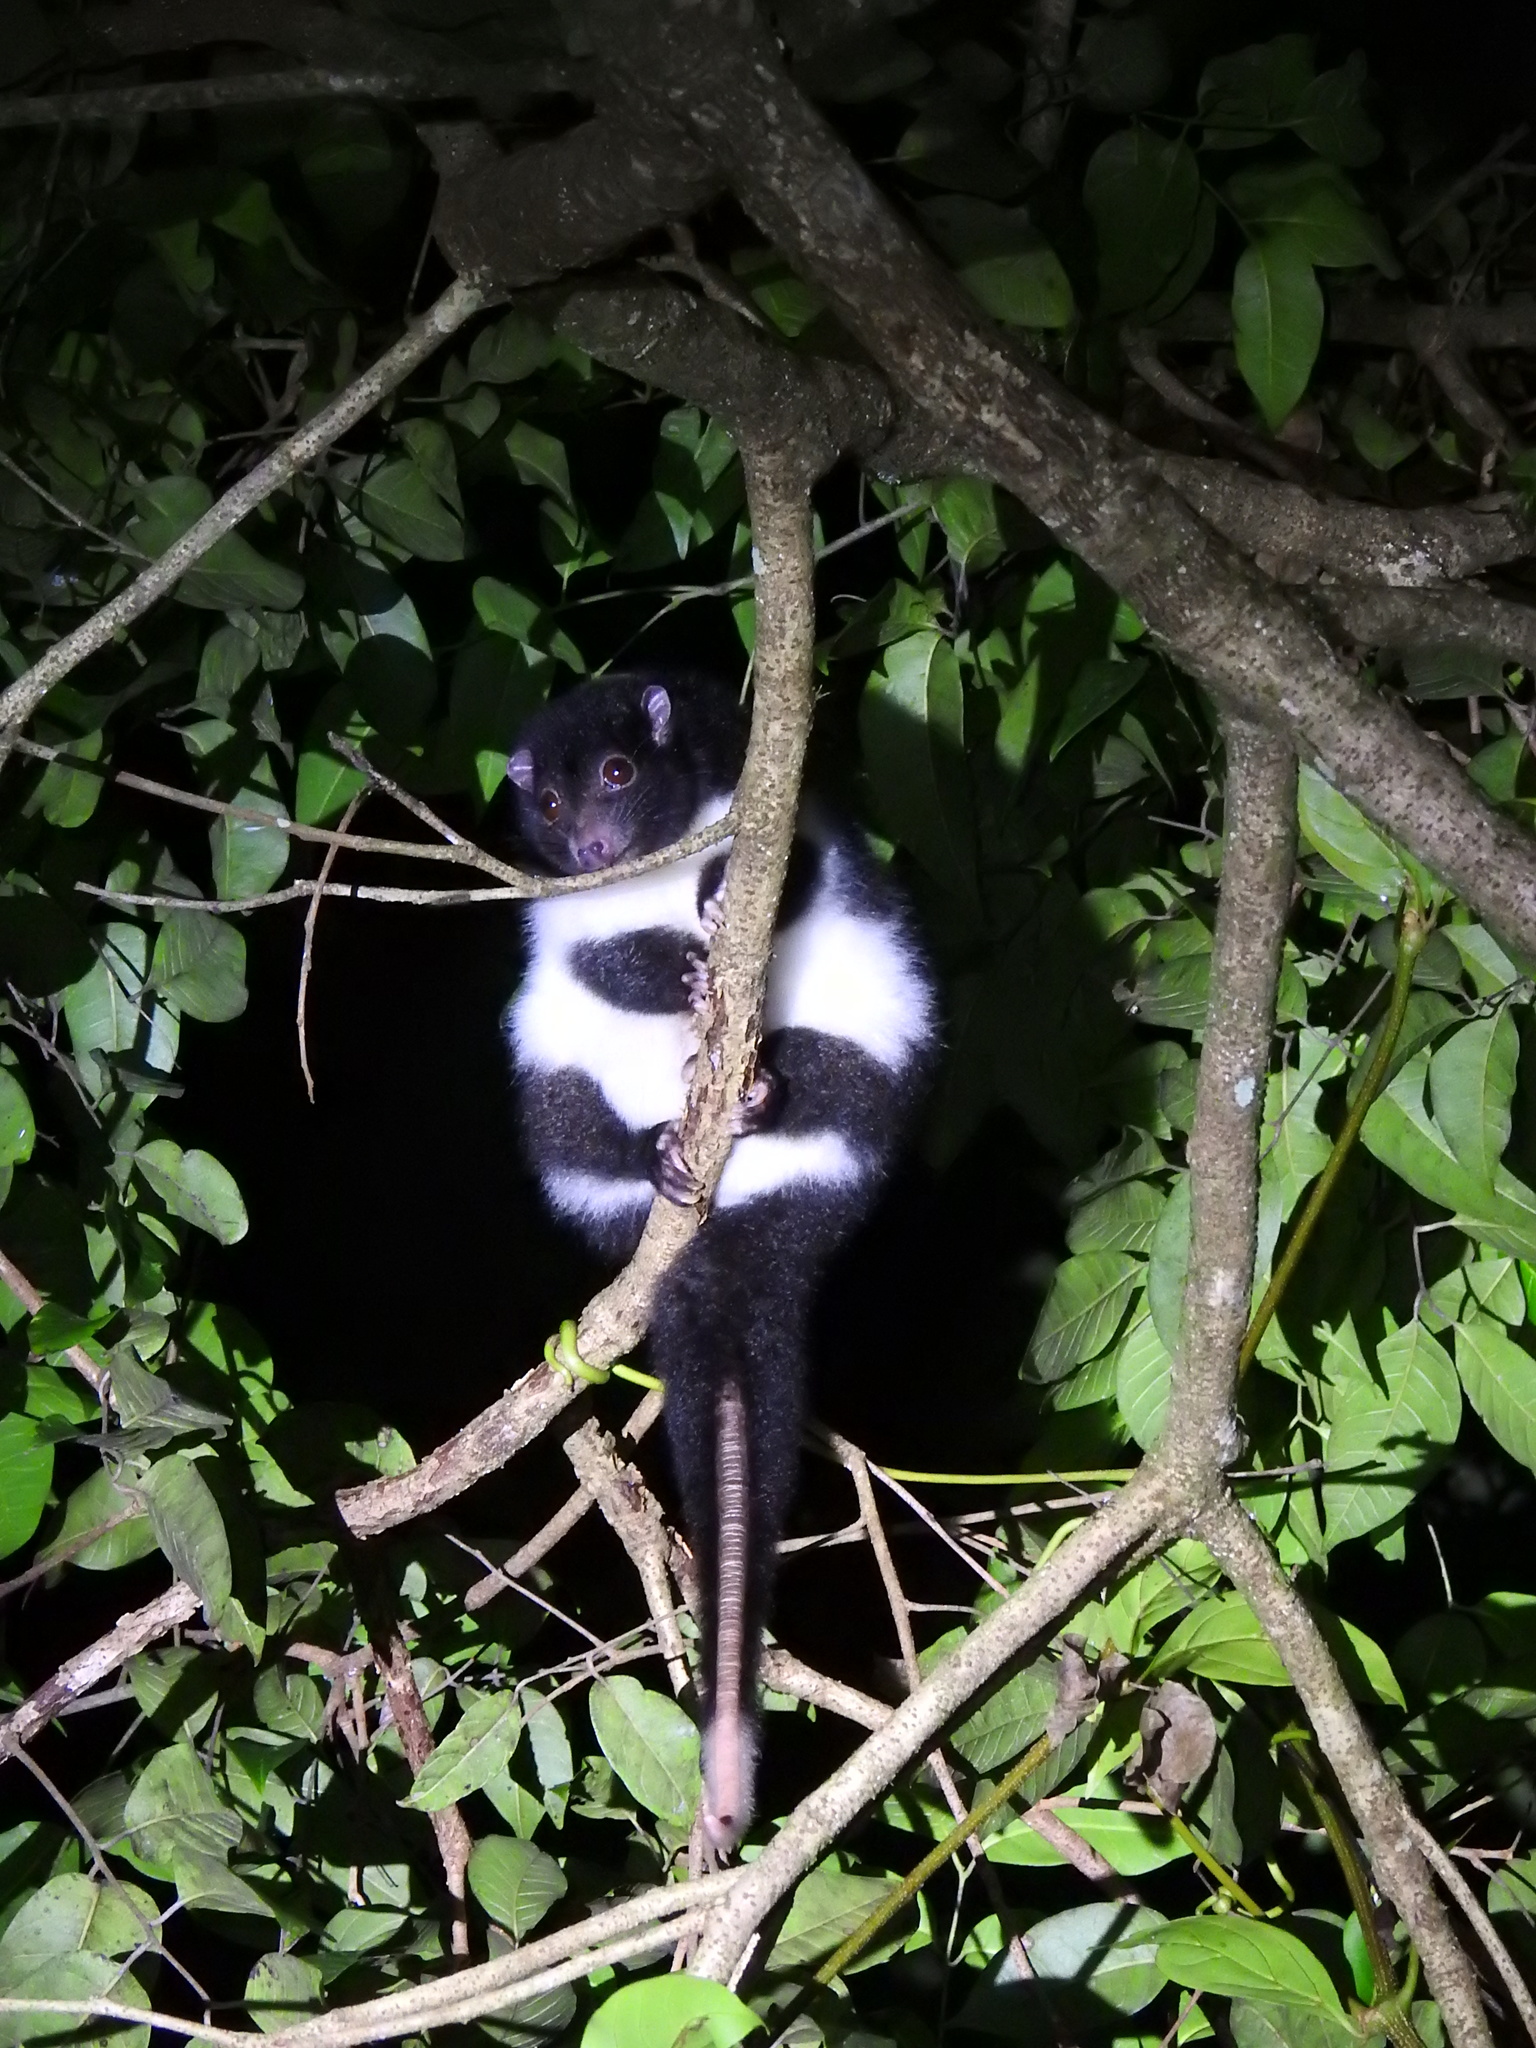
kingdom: Animalia
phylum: Chordata
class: Mammalia
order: Diprotodontia
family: Pseudocheiridae
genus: Pseudochirulus
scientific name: Pseudochirulus herbertensis
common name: Herbert river ringtail
